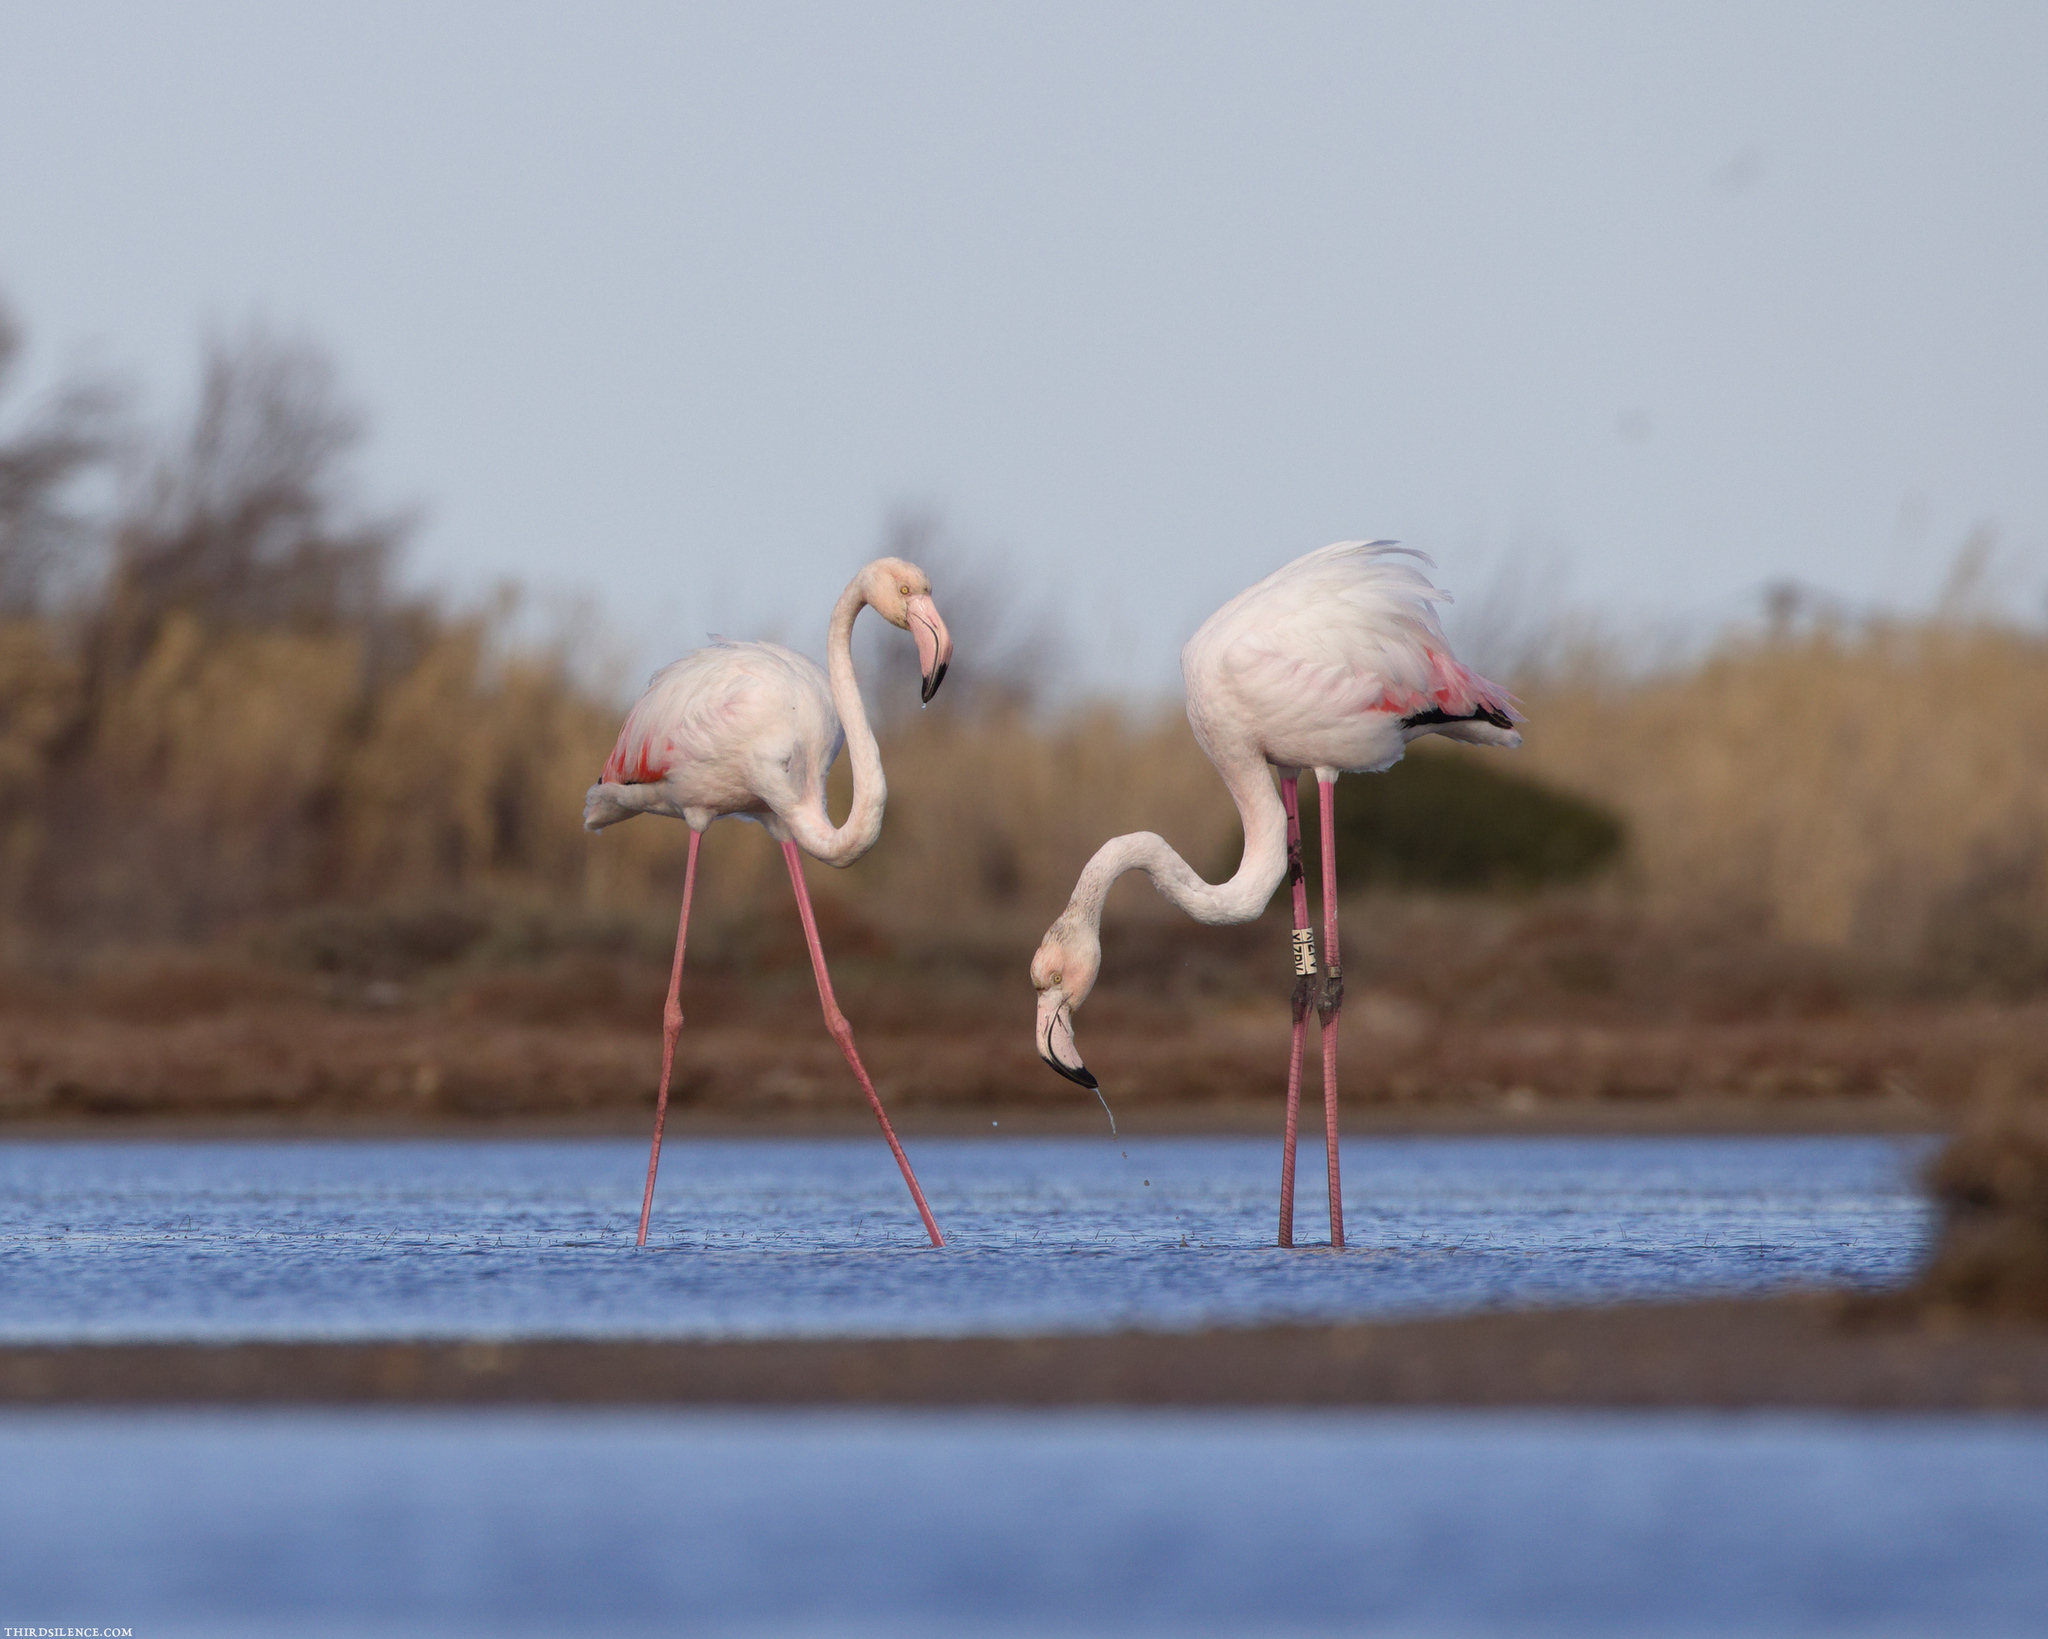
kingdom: Animalia
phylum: Chordata
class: Aves
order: Phoenicopteriformes
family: Phoenicopteridae
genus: Phoenicopterus
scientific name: Phoenicopterus roseus
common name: Greater flamingo
